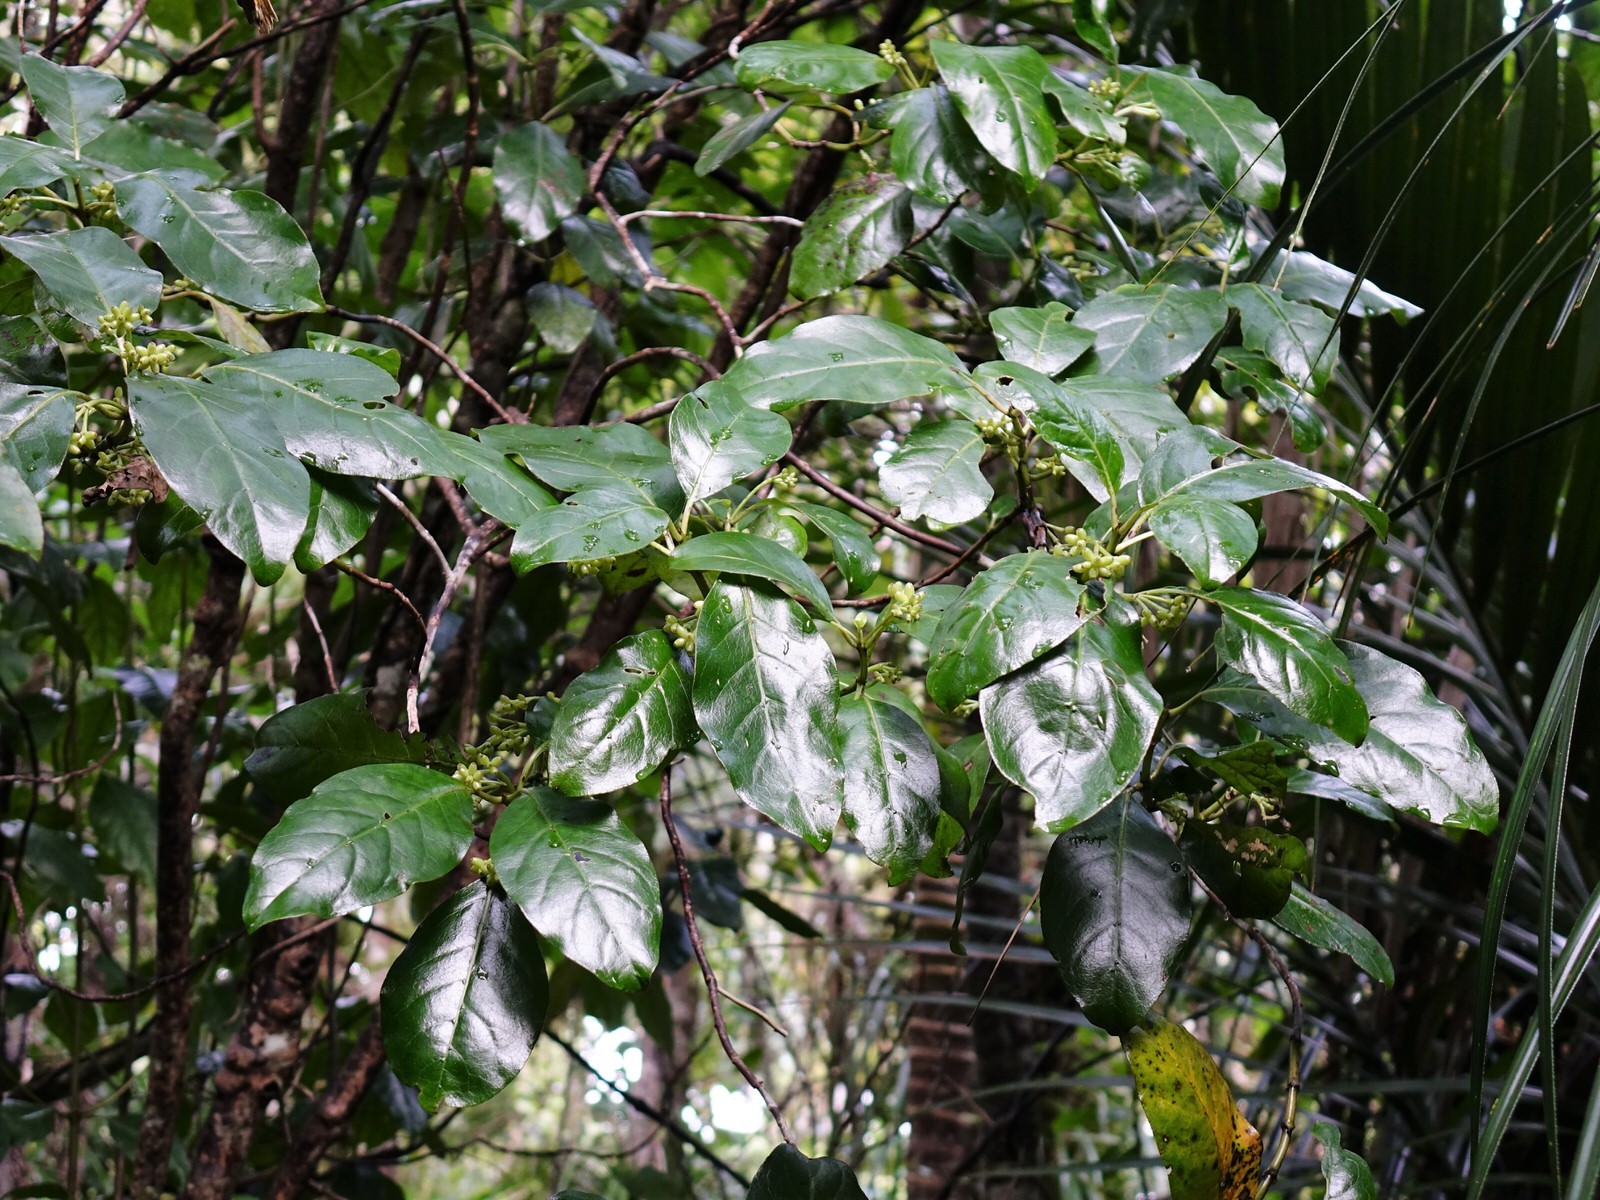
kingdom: Plantae
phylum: Tracheophyta
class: Magnoliopsida
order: Gentianales
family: Rubiaceae
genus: Coprosma
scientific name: Coprosma autumnalis
